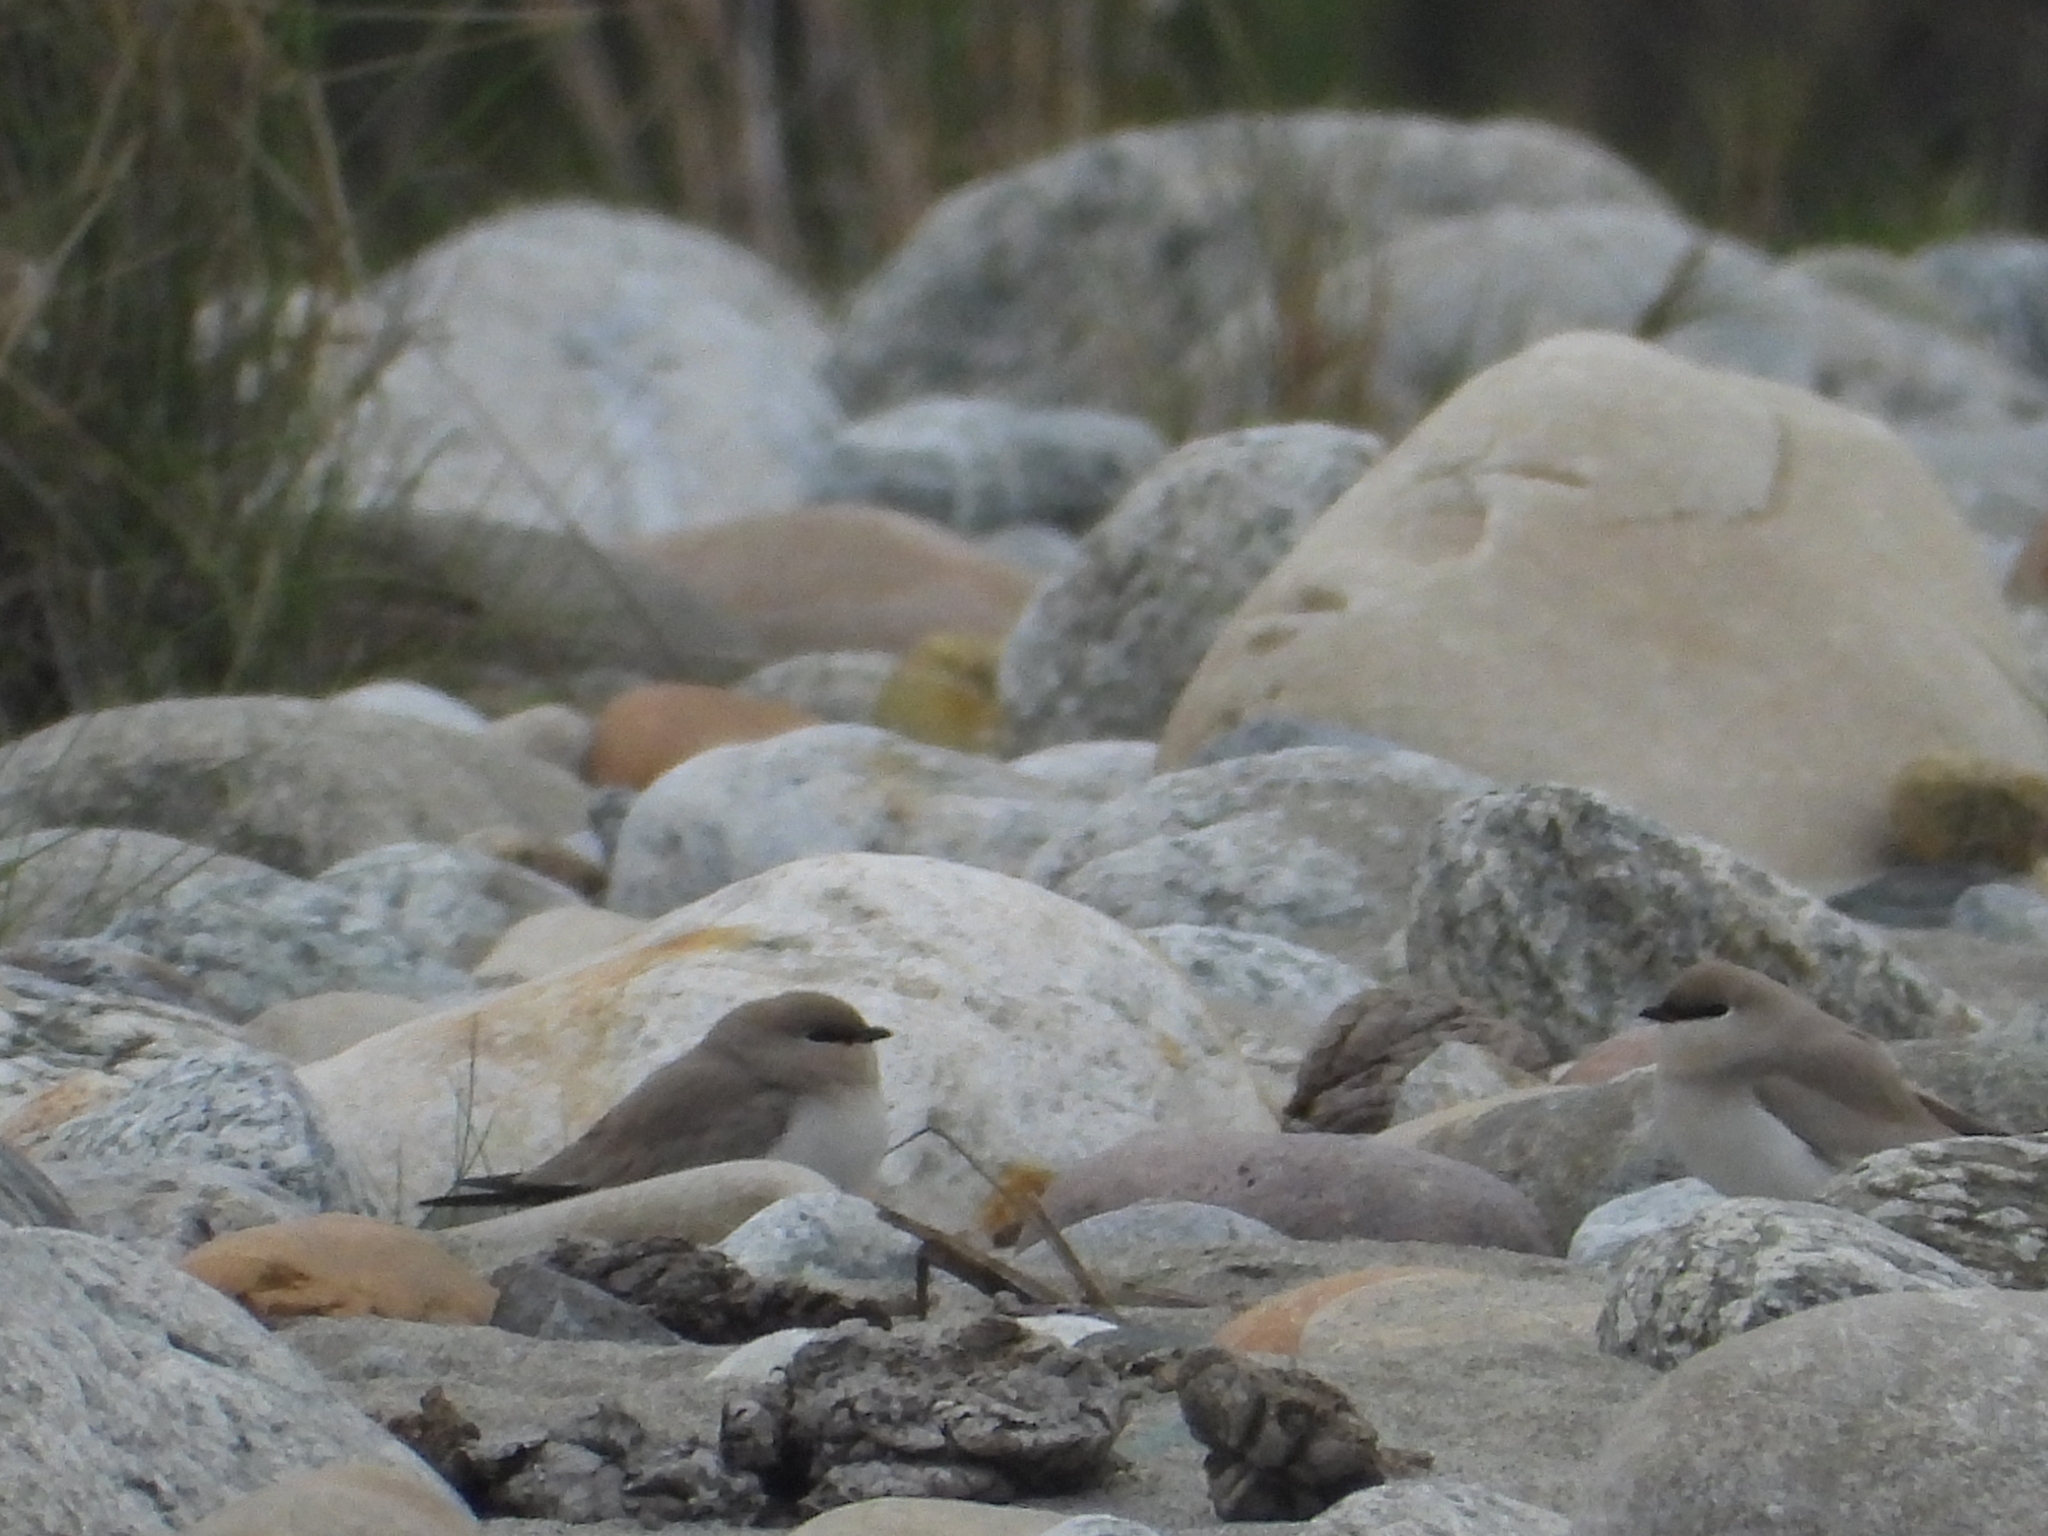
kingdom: Animalia
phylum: Chordata
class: Aves
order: Charadriiformes
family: Glareolidae
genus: Glareola
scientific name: Glareola lactea
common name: Small pratincole
